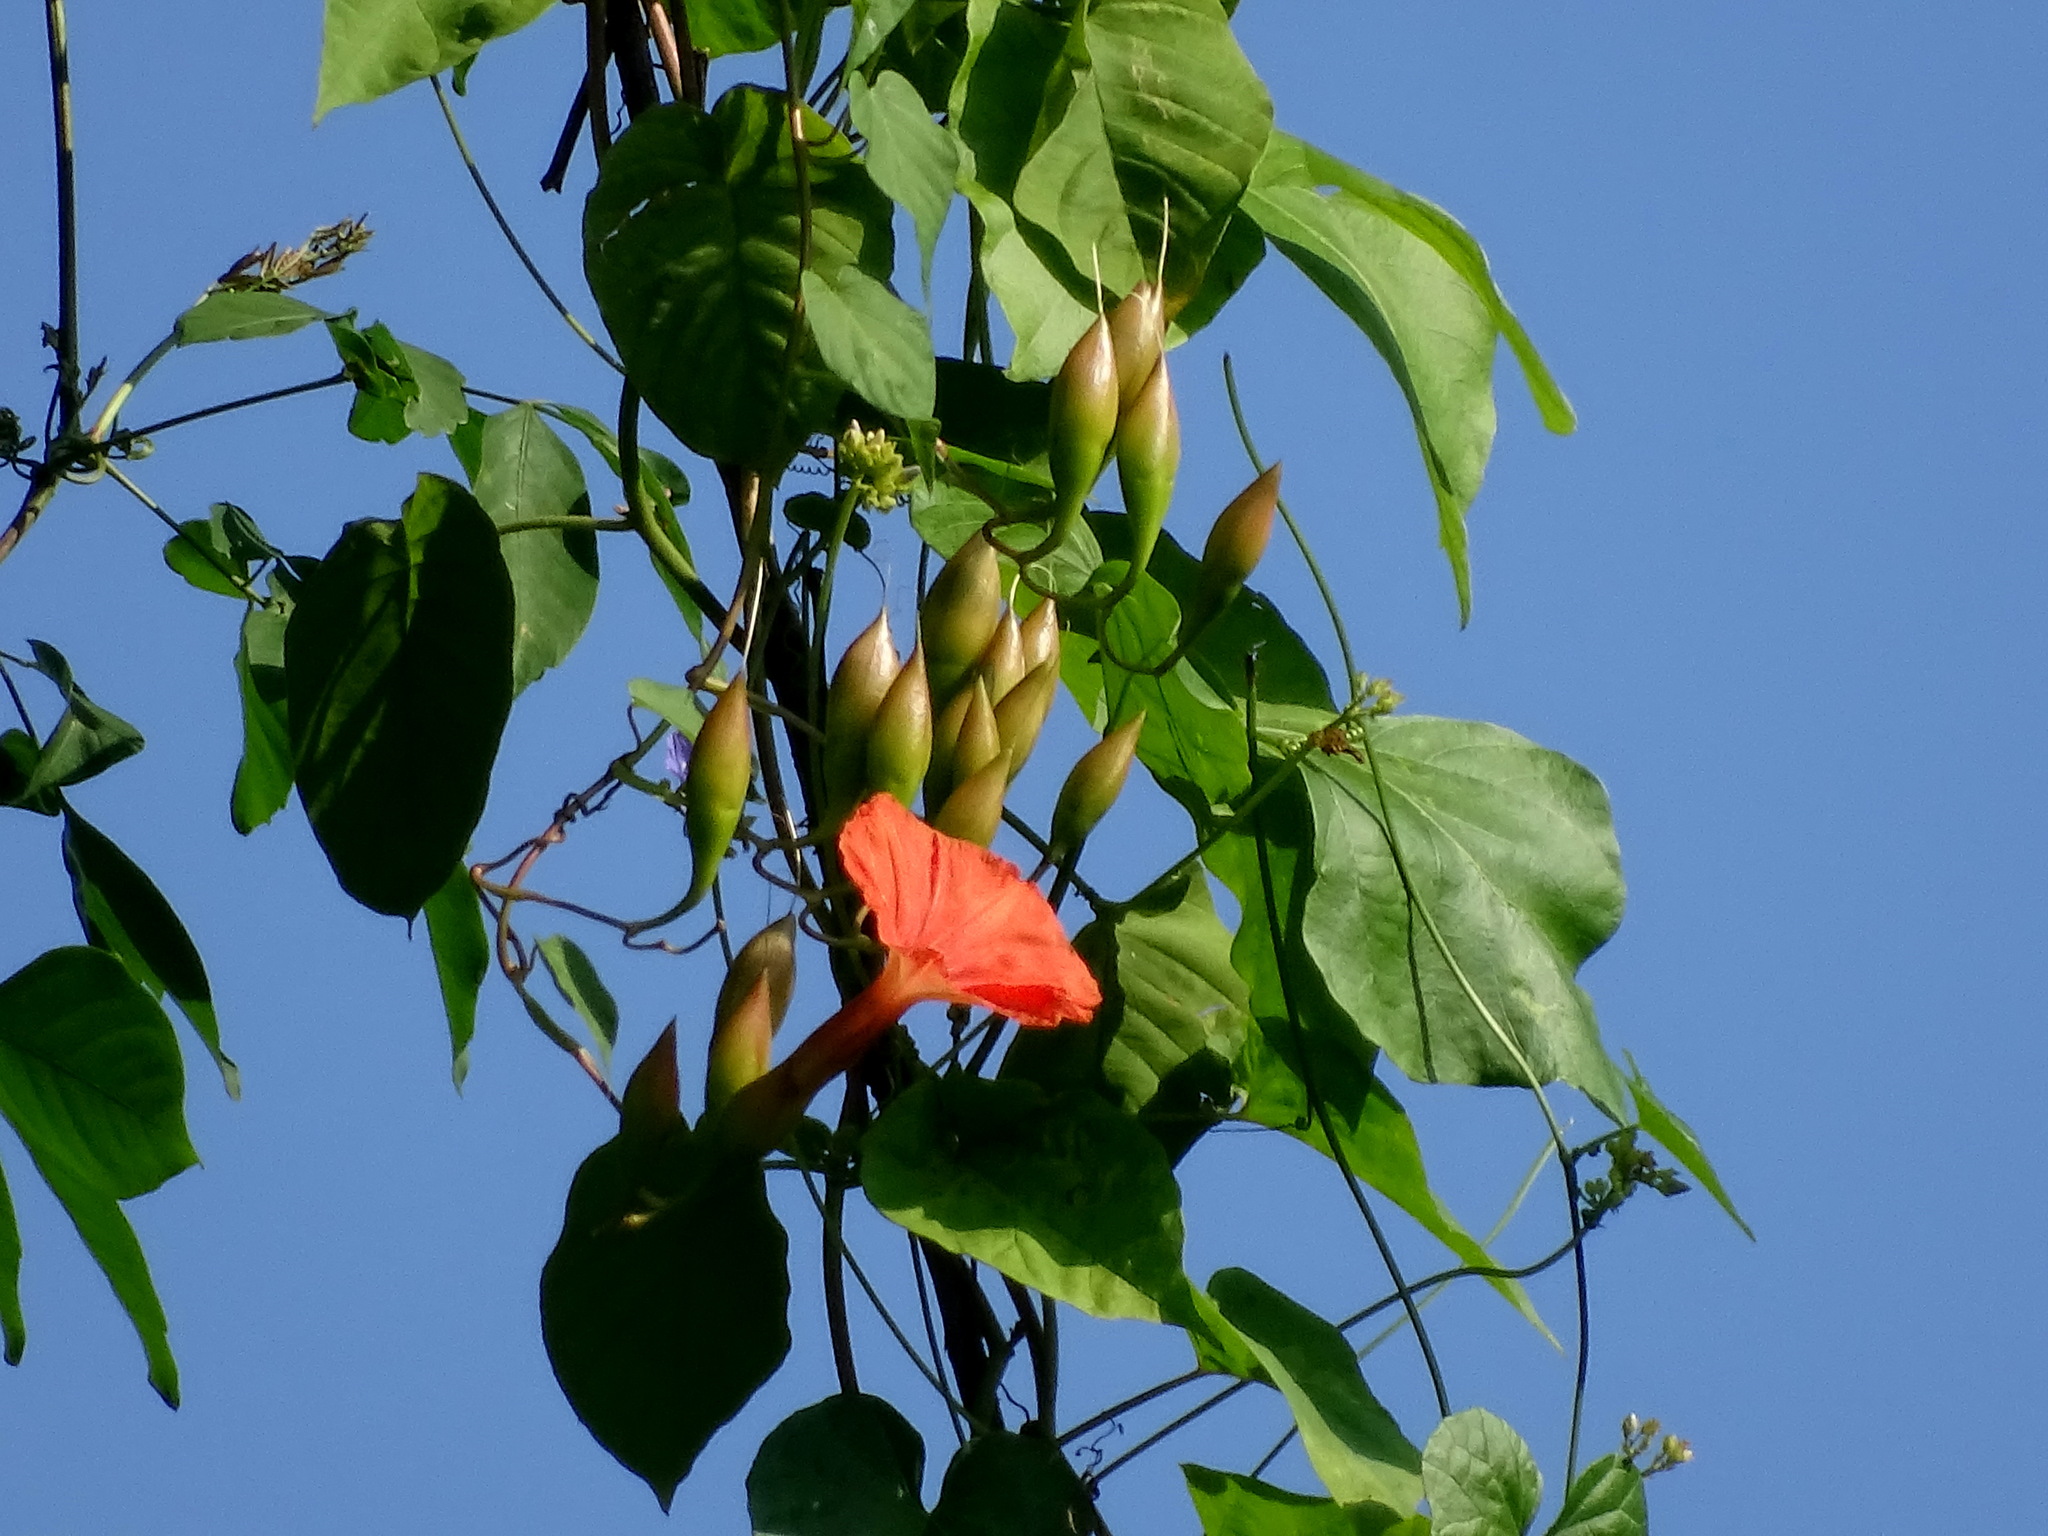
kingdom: Plantae
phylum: Tracheophyta
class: Magnoliopsida
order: Solanales
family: Convolvulaceae
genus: Operculina
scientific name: Operculina pteripes
